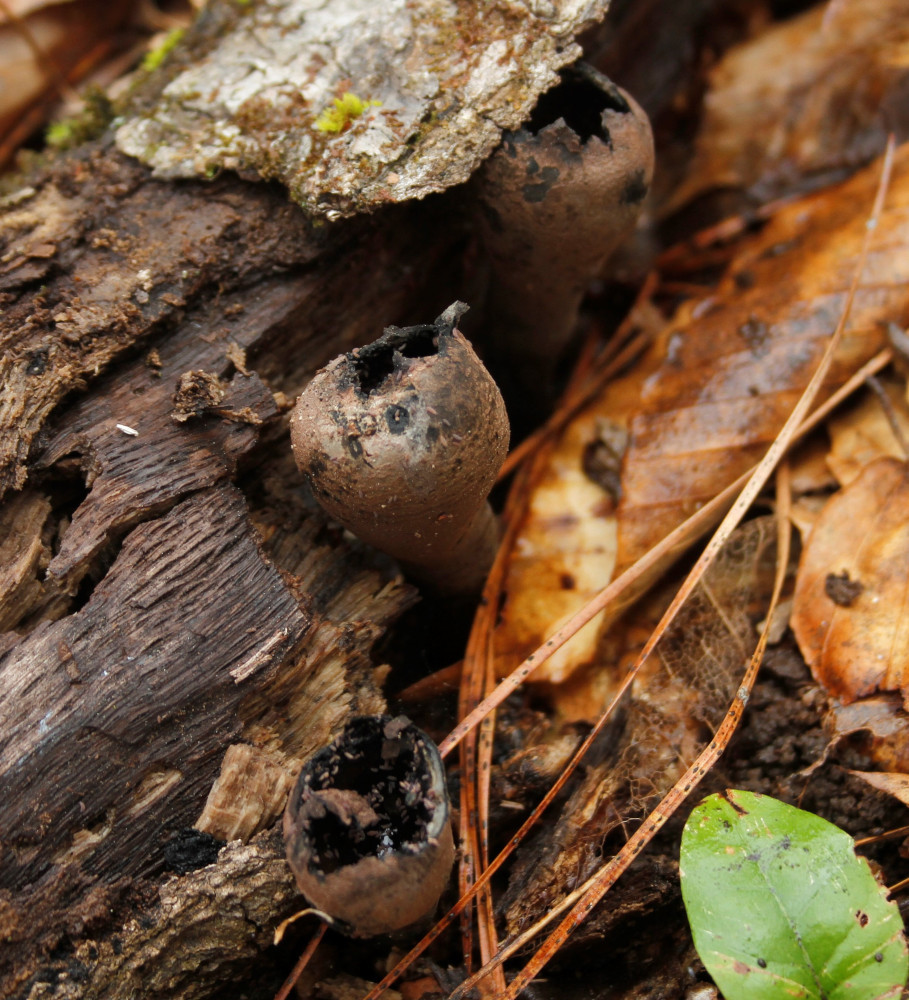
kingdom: Fungi
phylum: Ascomycota
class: Pezizomycetes
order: Pezizales
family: Sarcosomataceae
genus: Urnula
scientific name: Urnula craterium
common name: Devil's urn
